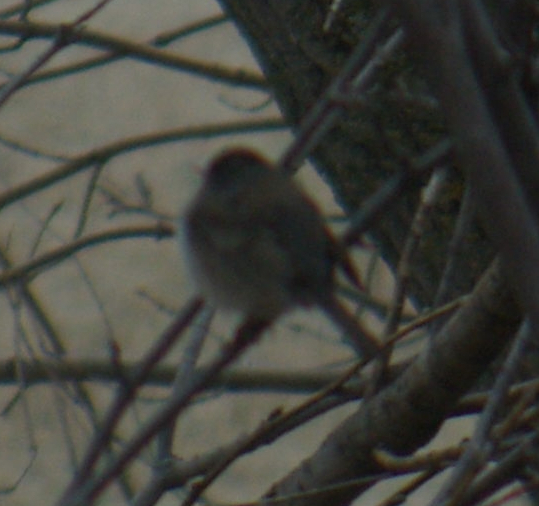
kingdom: Animalia
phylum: Chordata
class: Aves
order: Passeriformes
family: Passerellidae
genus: Junco
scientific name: Junco hyemalis
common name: Dark-eyed junco
